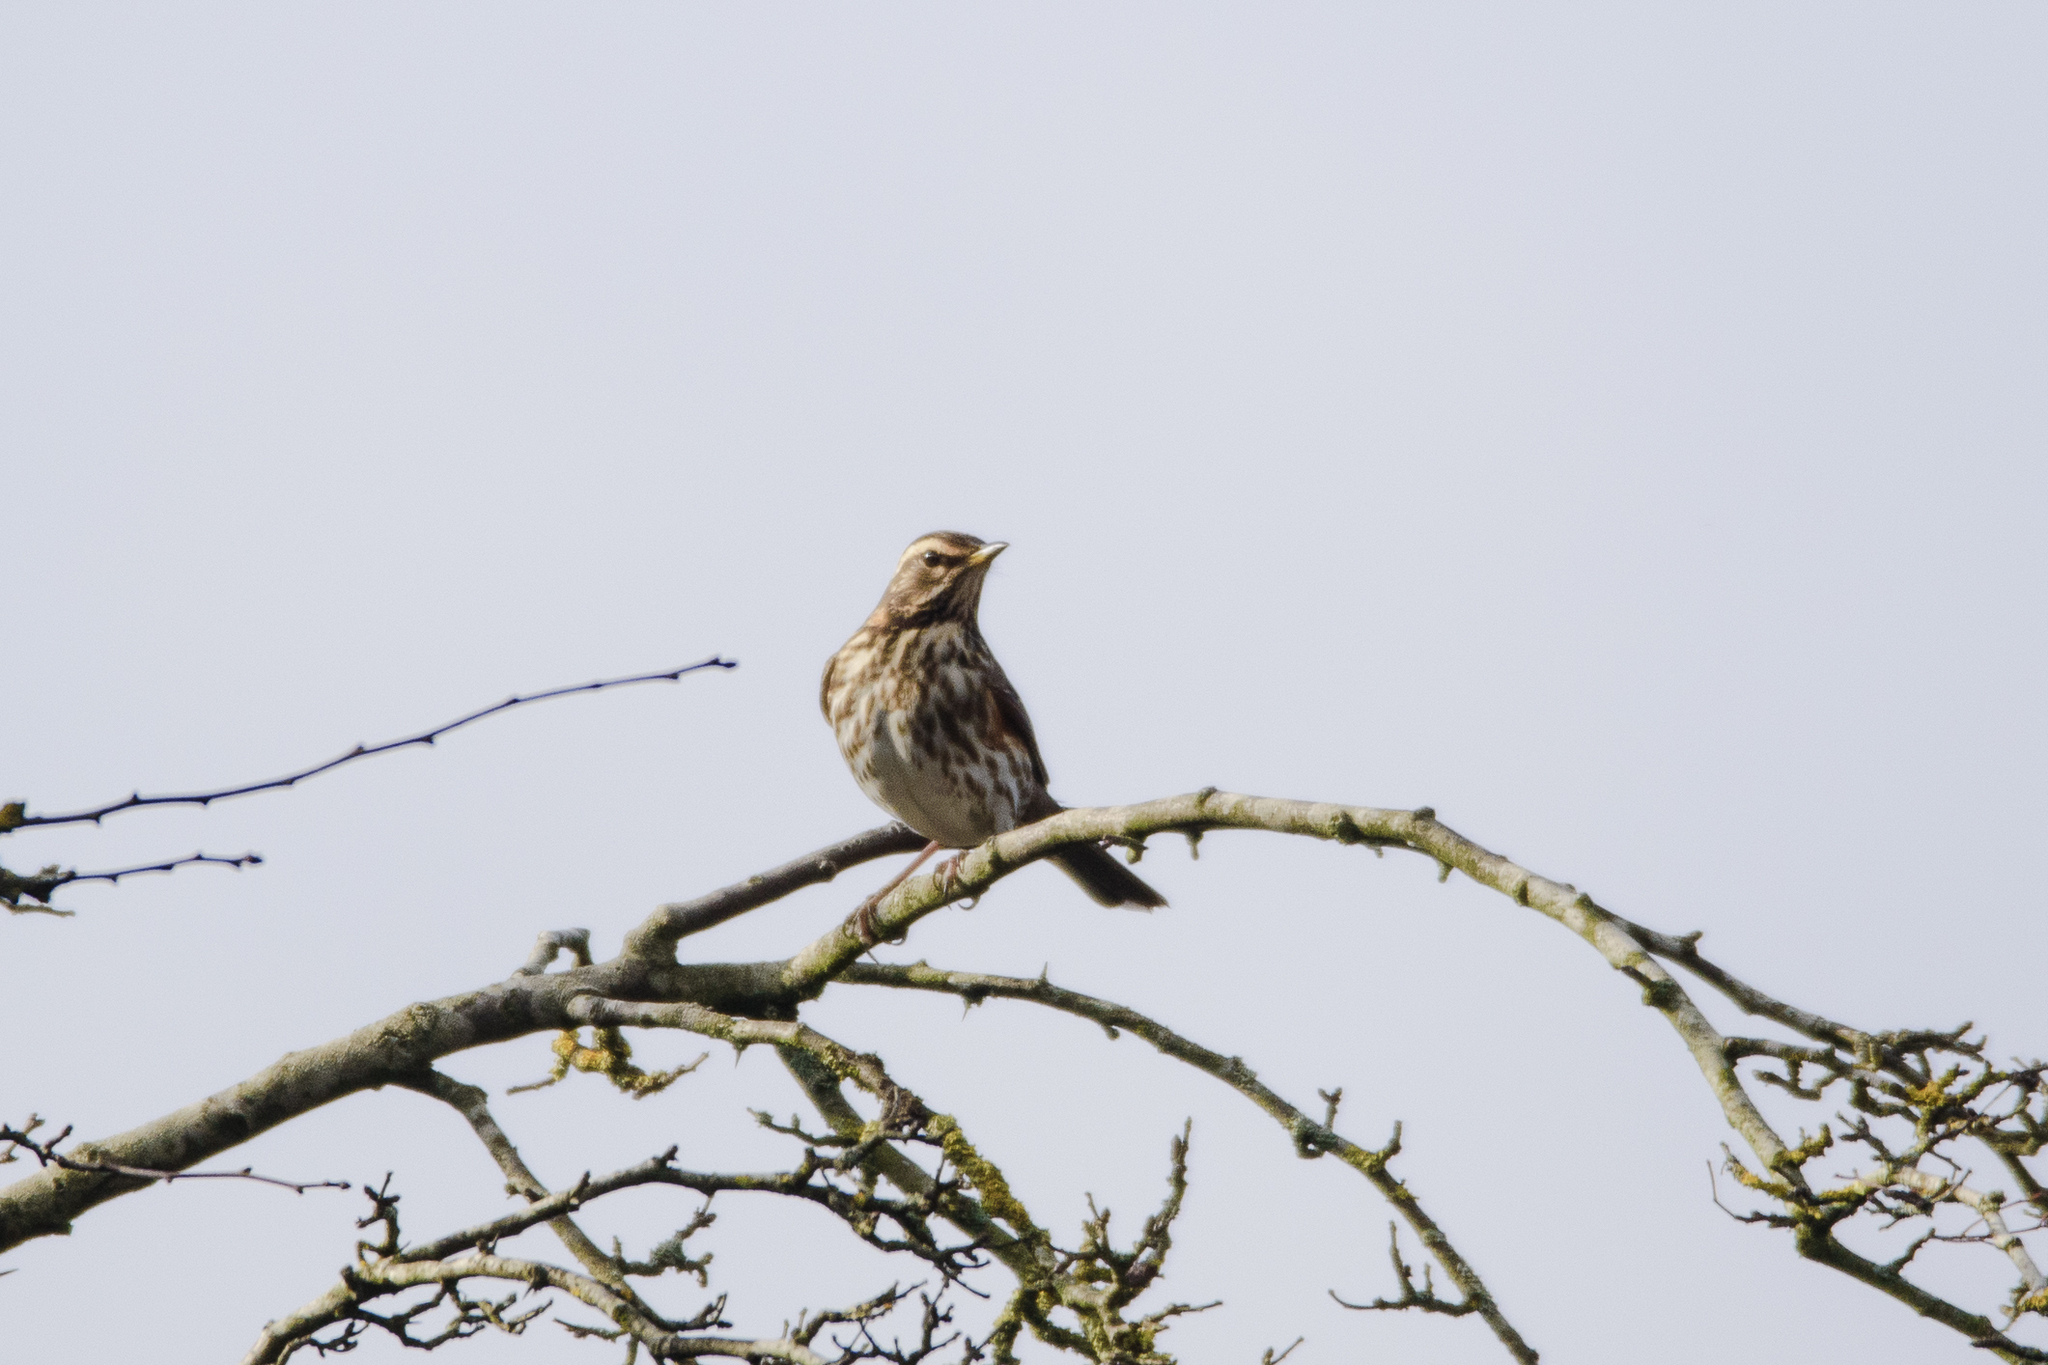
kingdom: Animalia
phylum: Chordata
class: Aves
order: Passeriformes
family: Turdidae
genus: Turdus
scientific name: Turdus iliacus
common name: Redwing
